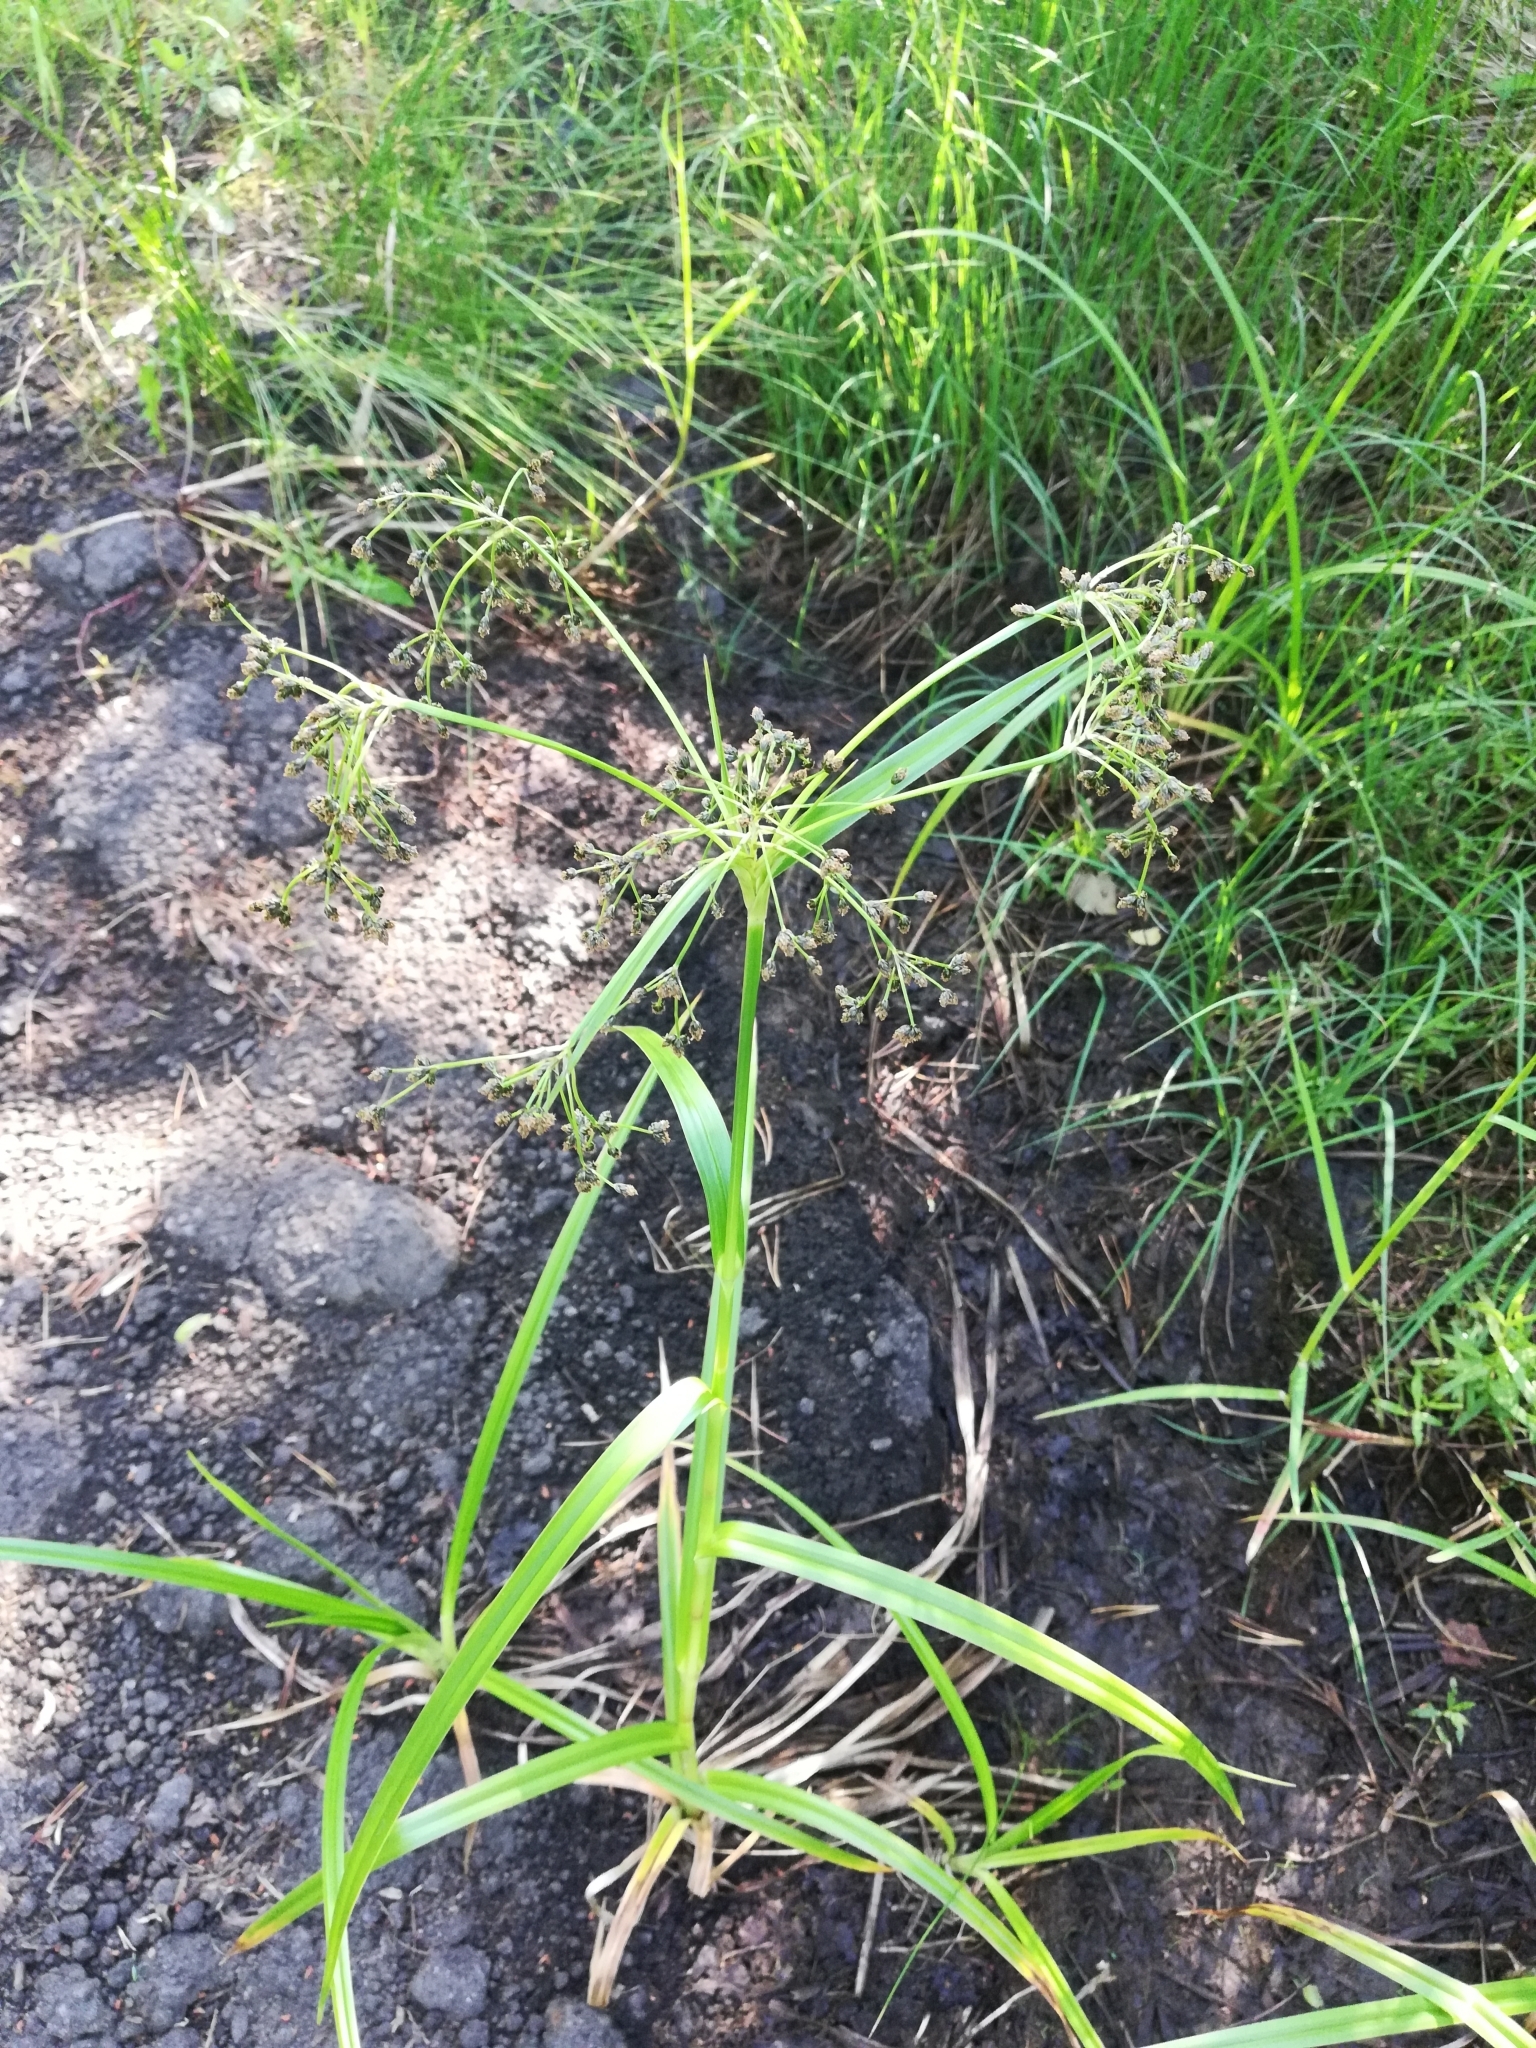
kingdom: Plantae
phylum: Tracheophyta
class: Liliopsida
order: Poales
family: Cyperaceae
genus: Scirpus
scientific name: Scirpus sylvaticus
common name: Wood club-rush
